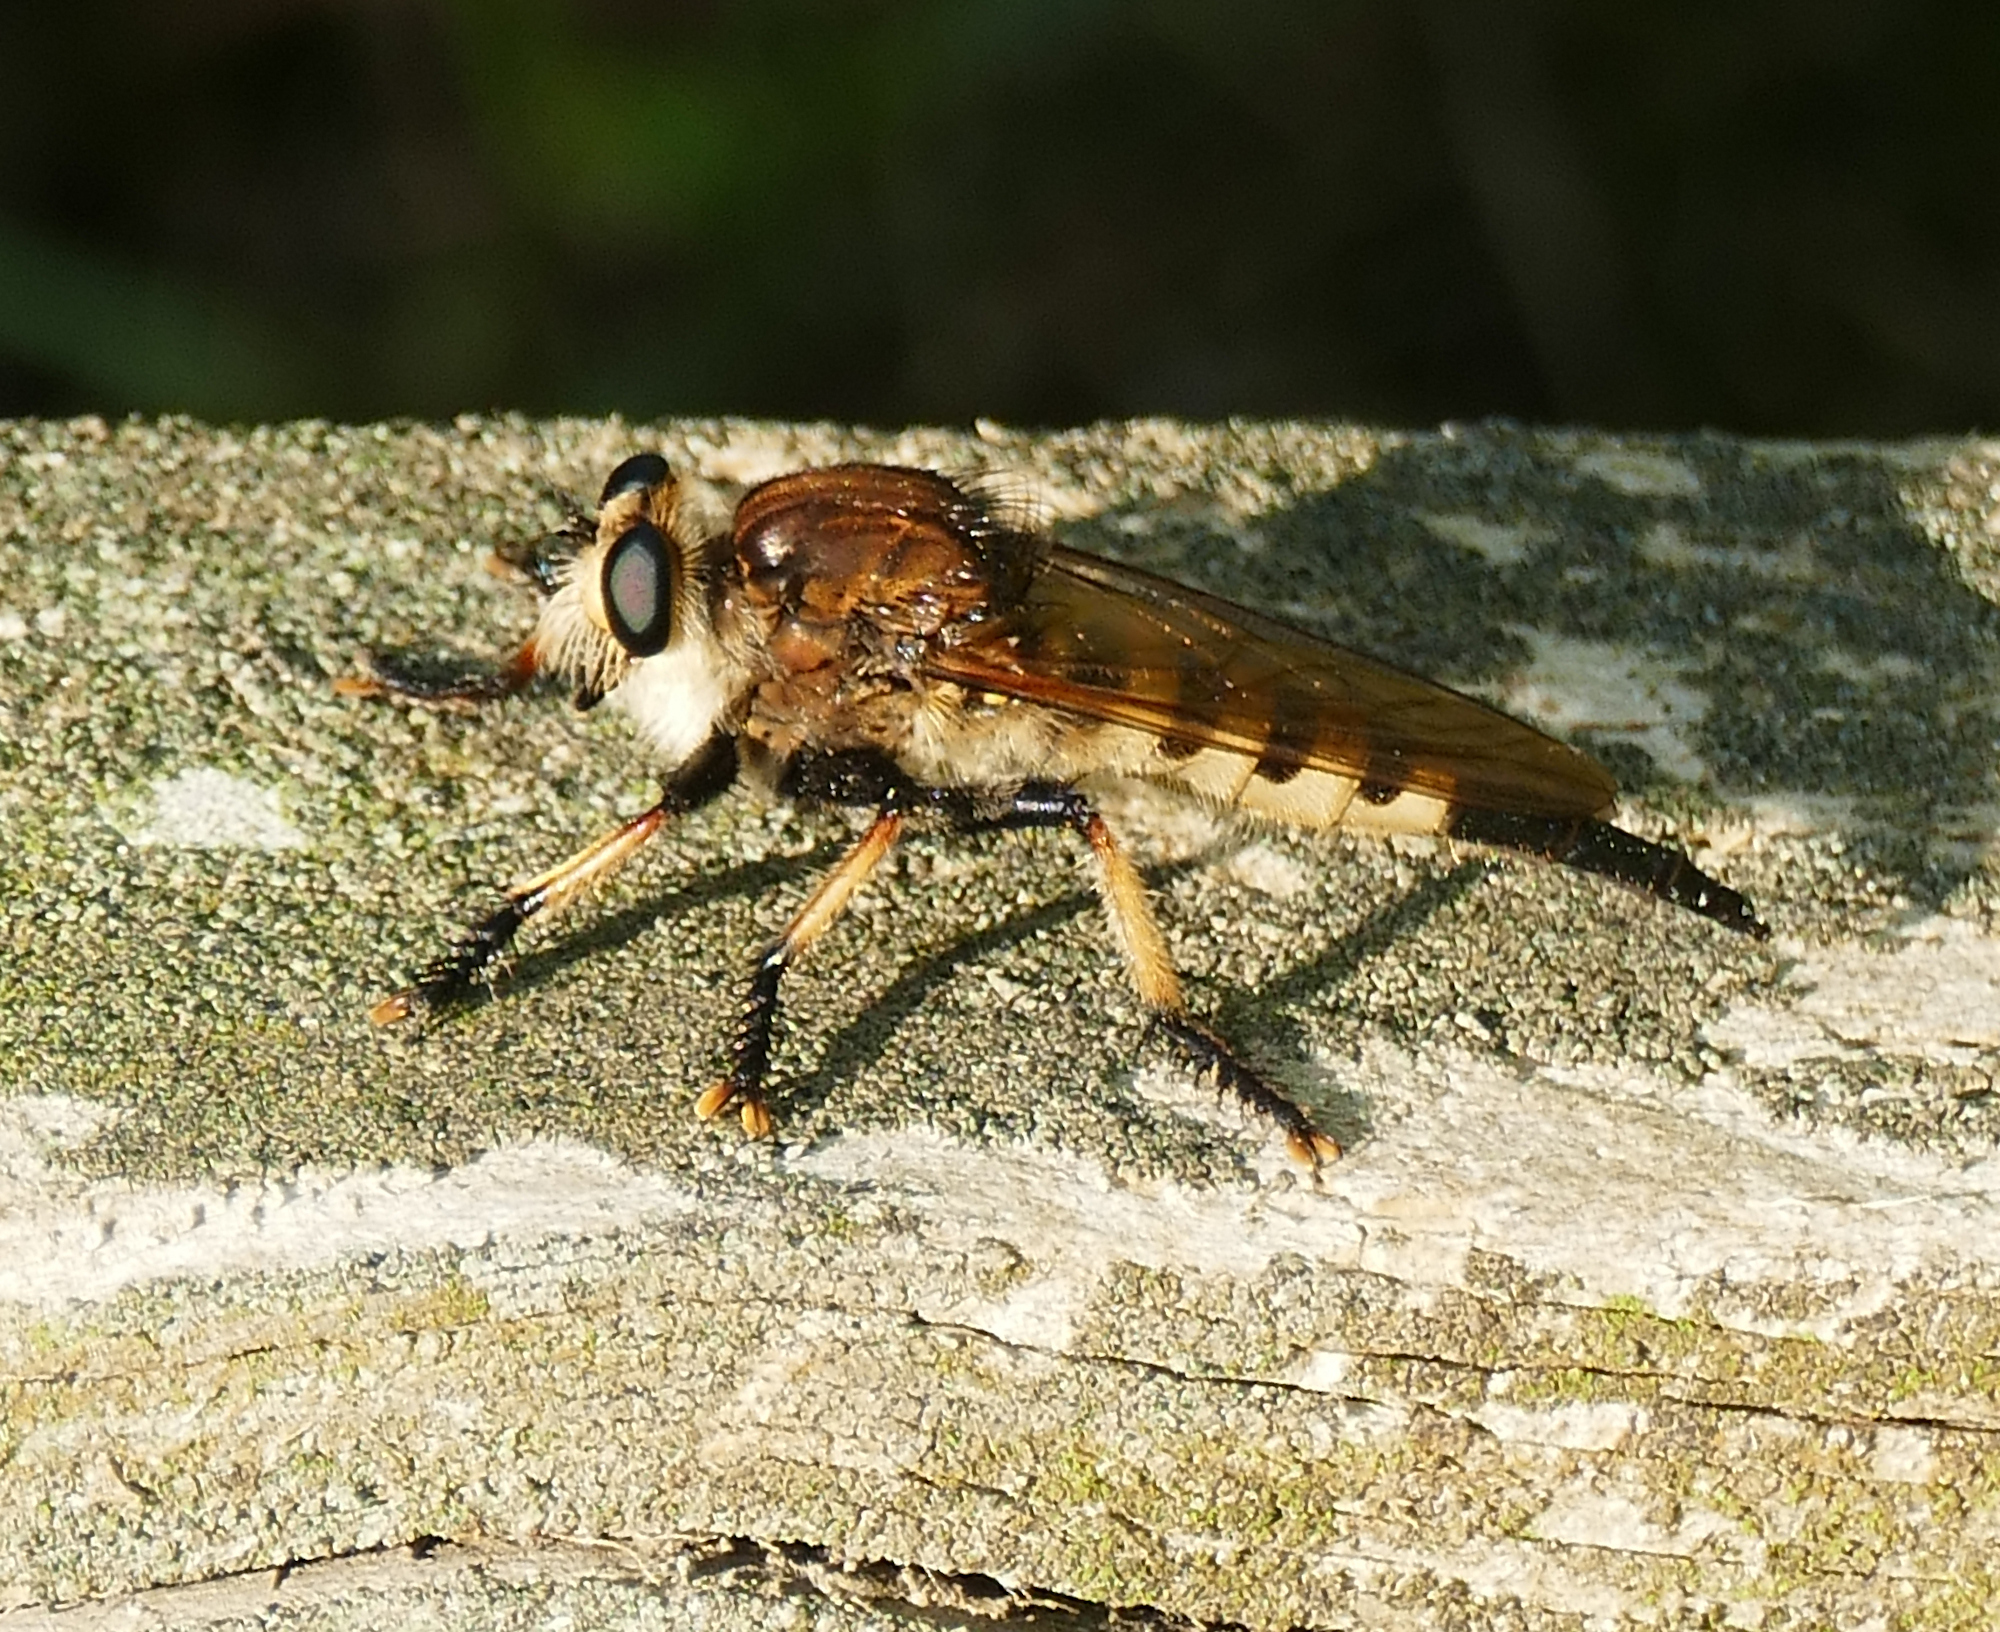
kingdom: Animalia
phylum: Arthropoda
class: Insecta
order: Diptera
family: Asilidae
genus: Promachus
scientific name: Promachus rufipes
